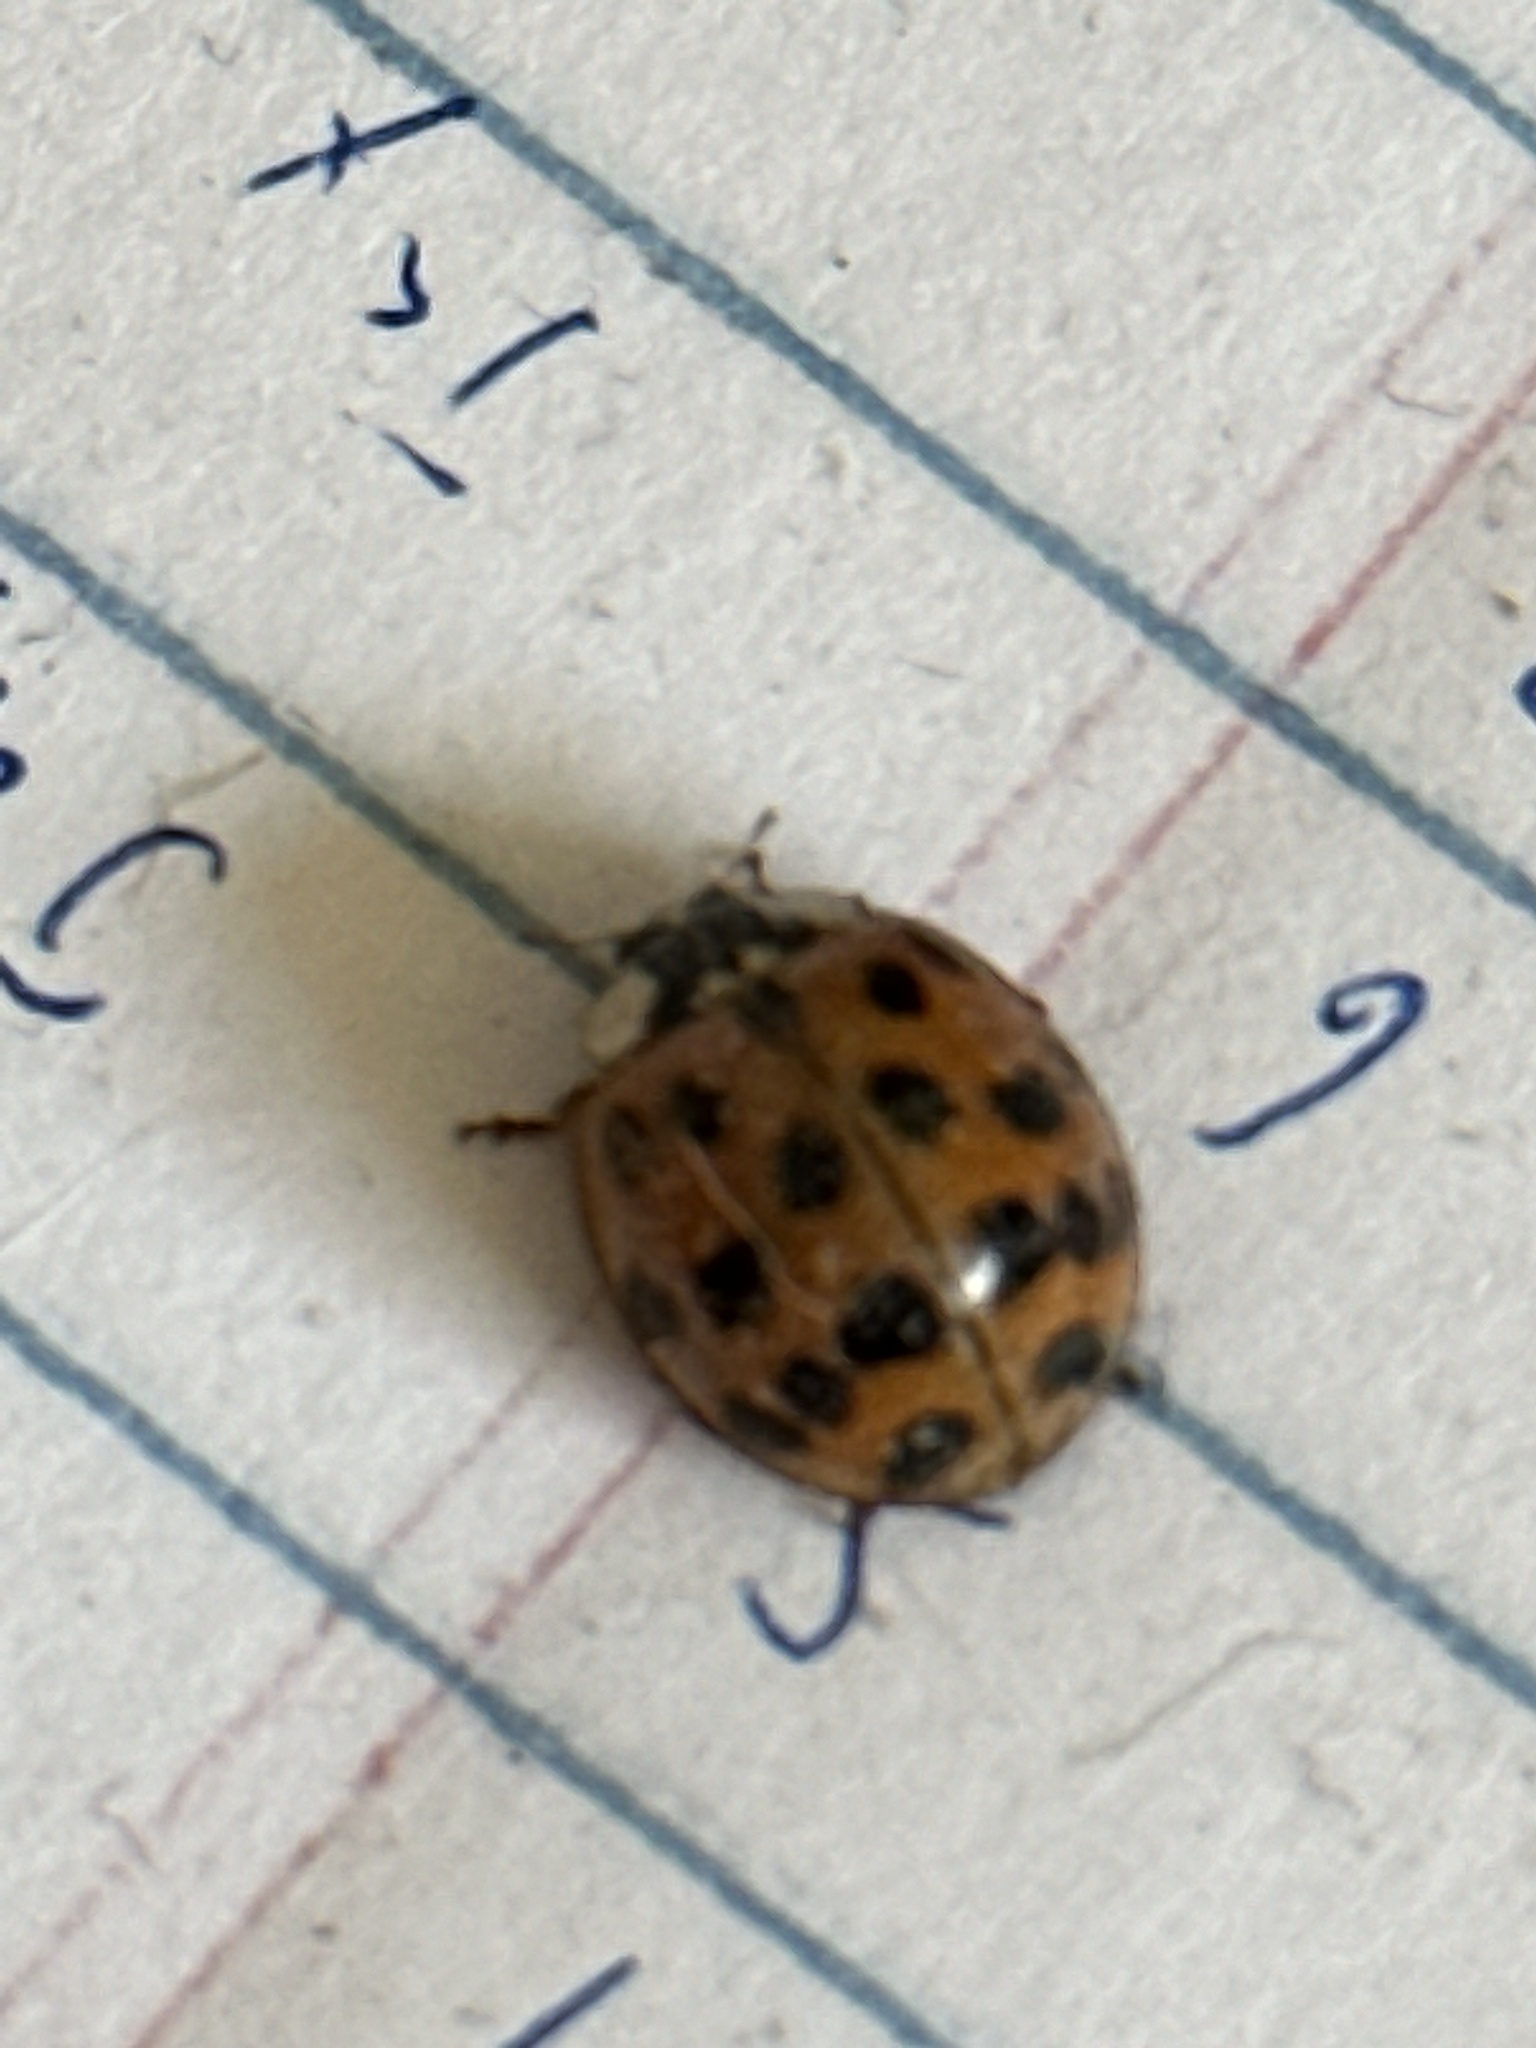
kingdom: Animalia
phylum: Arthropoda
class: Insecta
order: Coleoptera
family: Coccinellidae
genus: Harmonia
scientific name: Harmonia axyridis
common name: Harlequin ladybird
